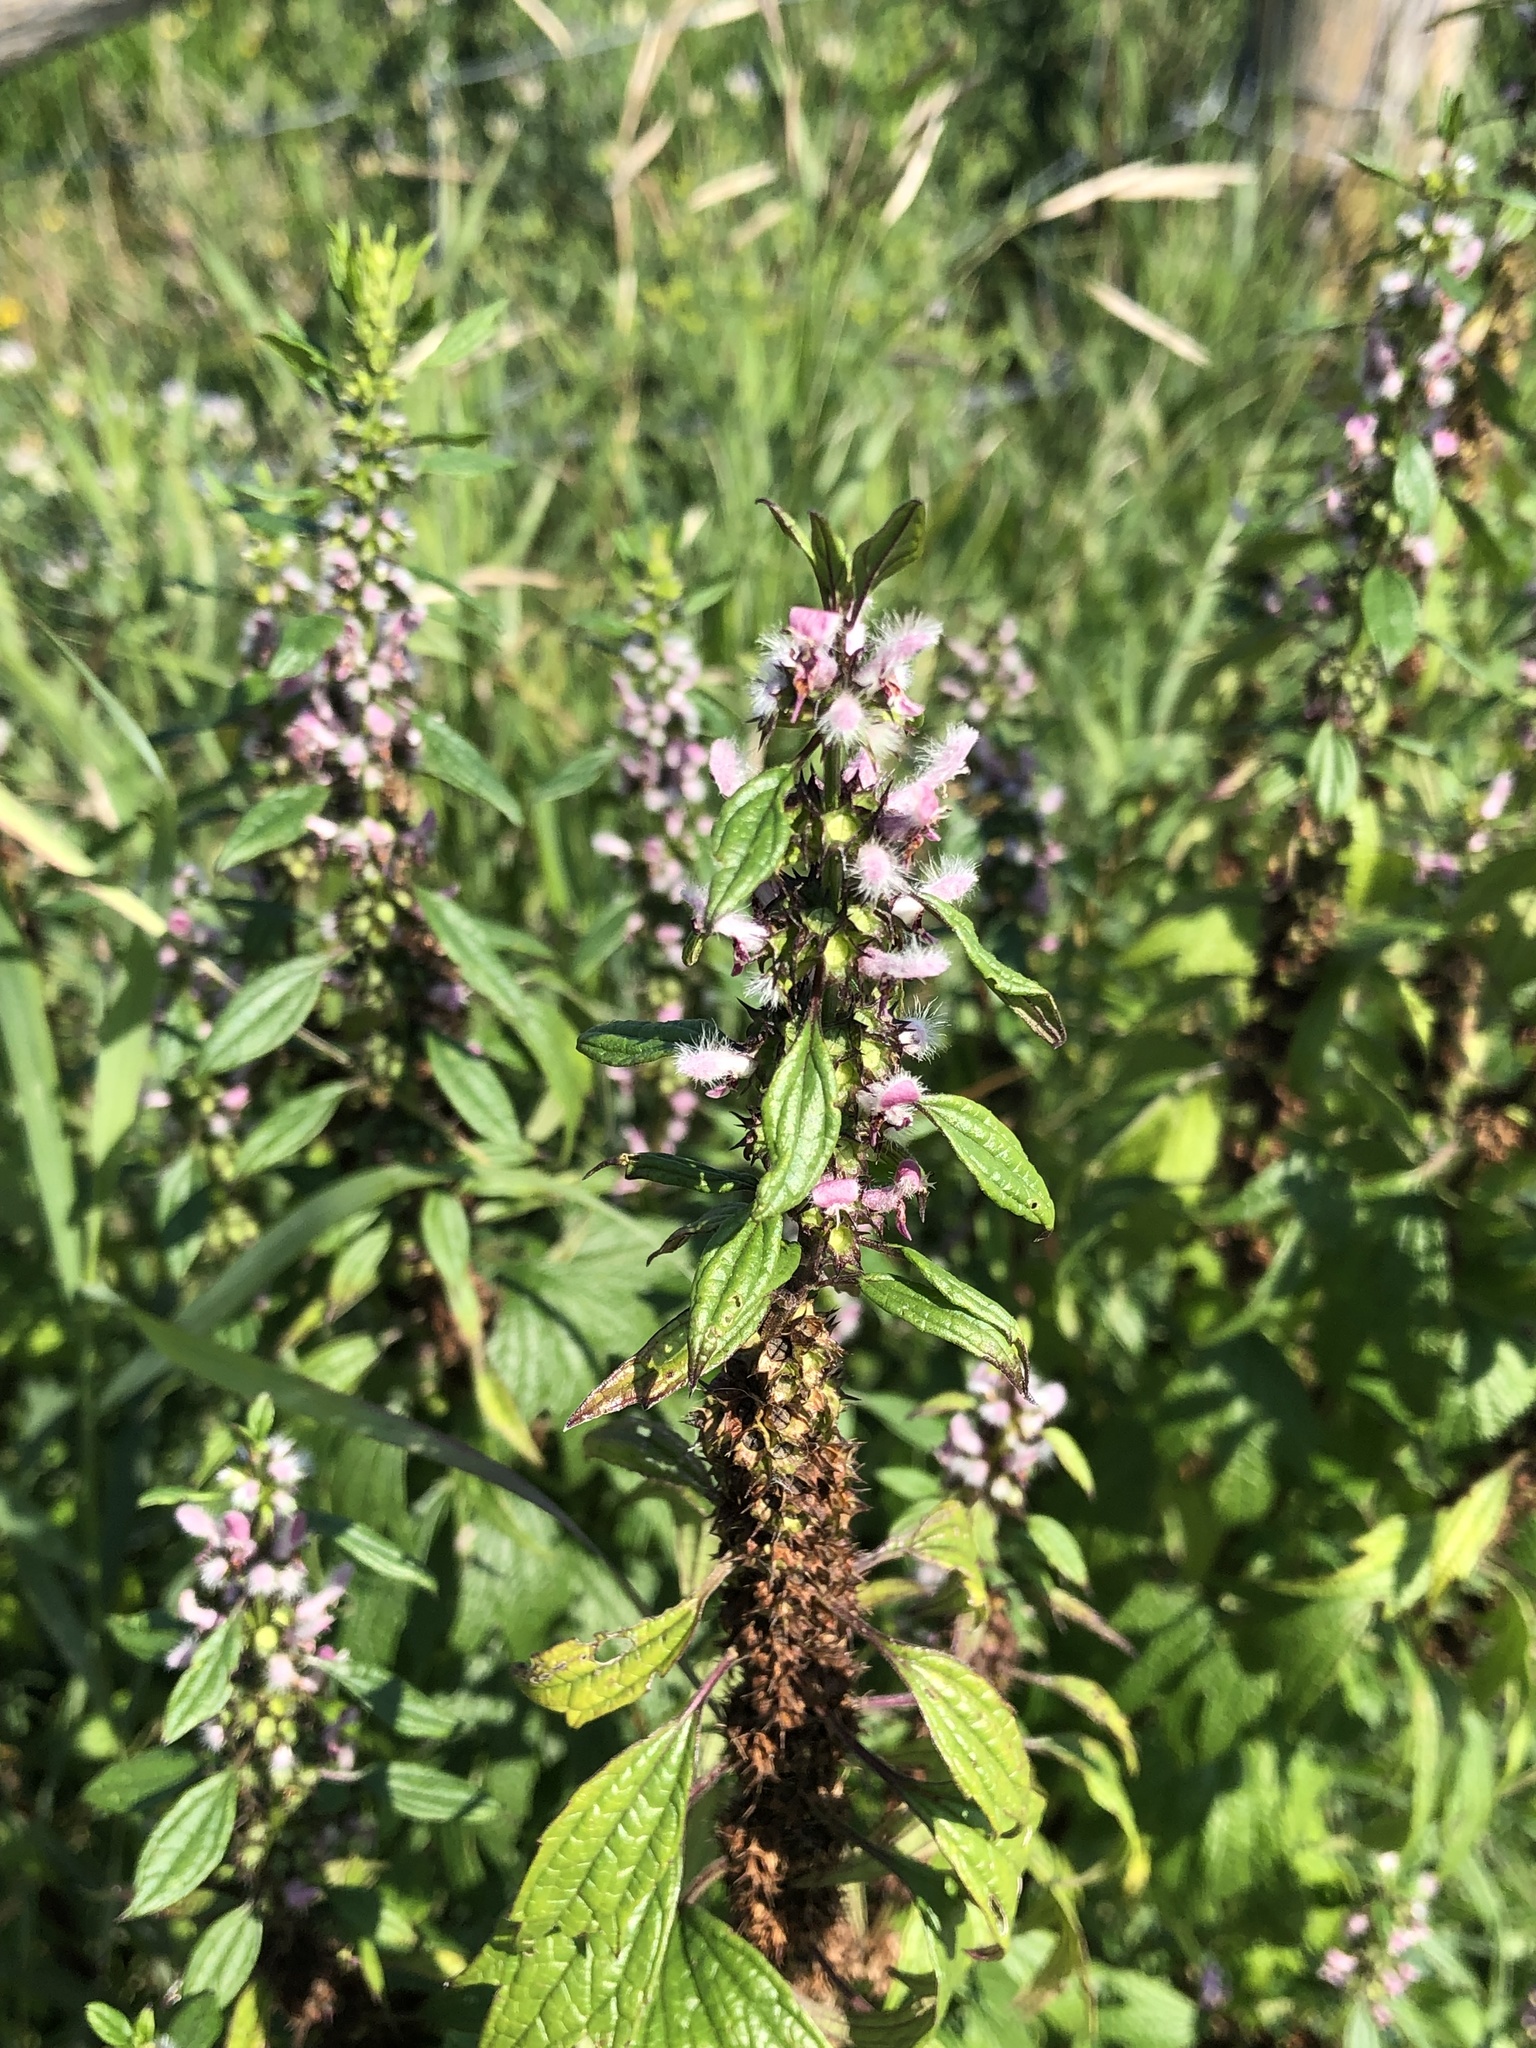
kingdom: Plantae
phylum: Tracheophyta
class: Magnoliopsida
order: Lamiales
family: Lamiaceae
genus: Leonurus
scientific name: Leonurus cardiaca
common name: Motherwort
